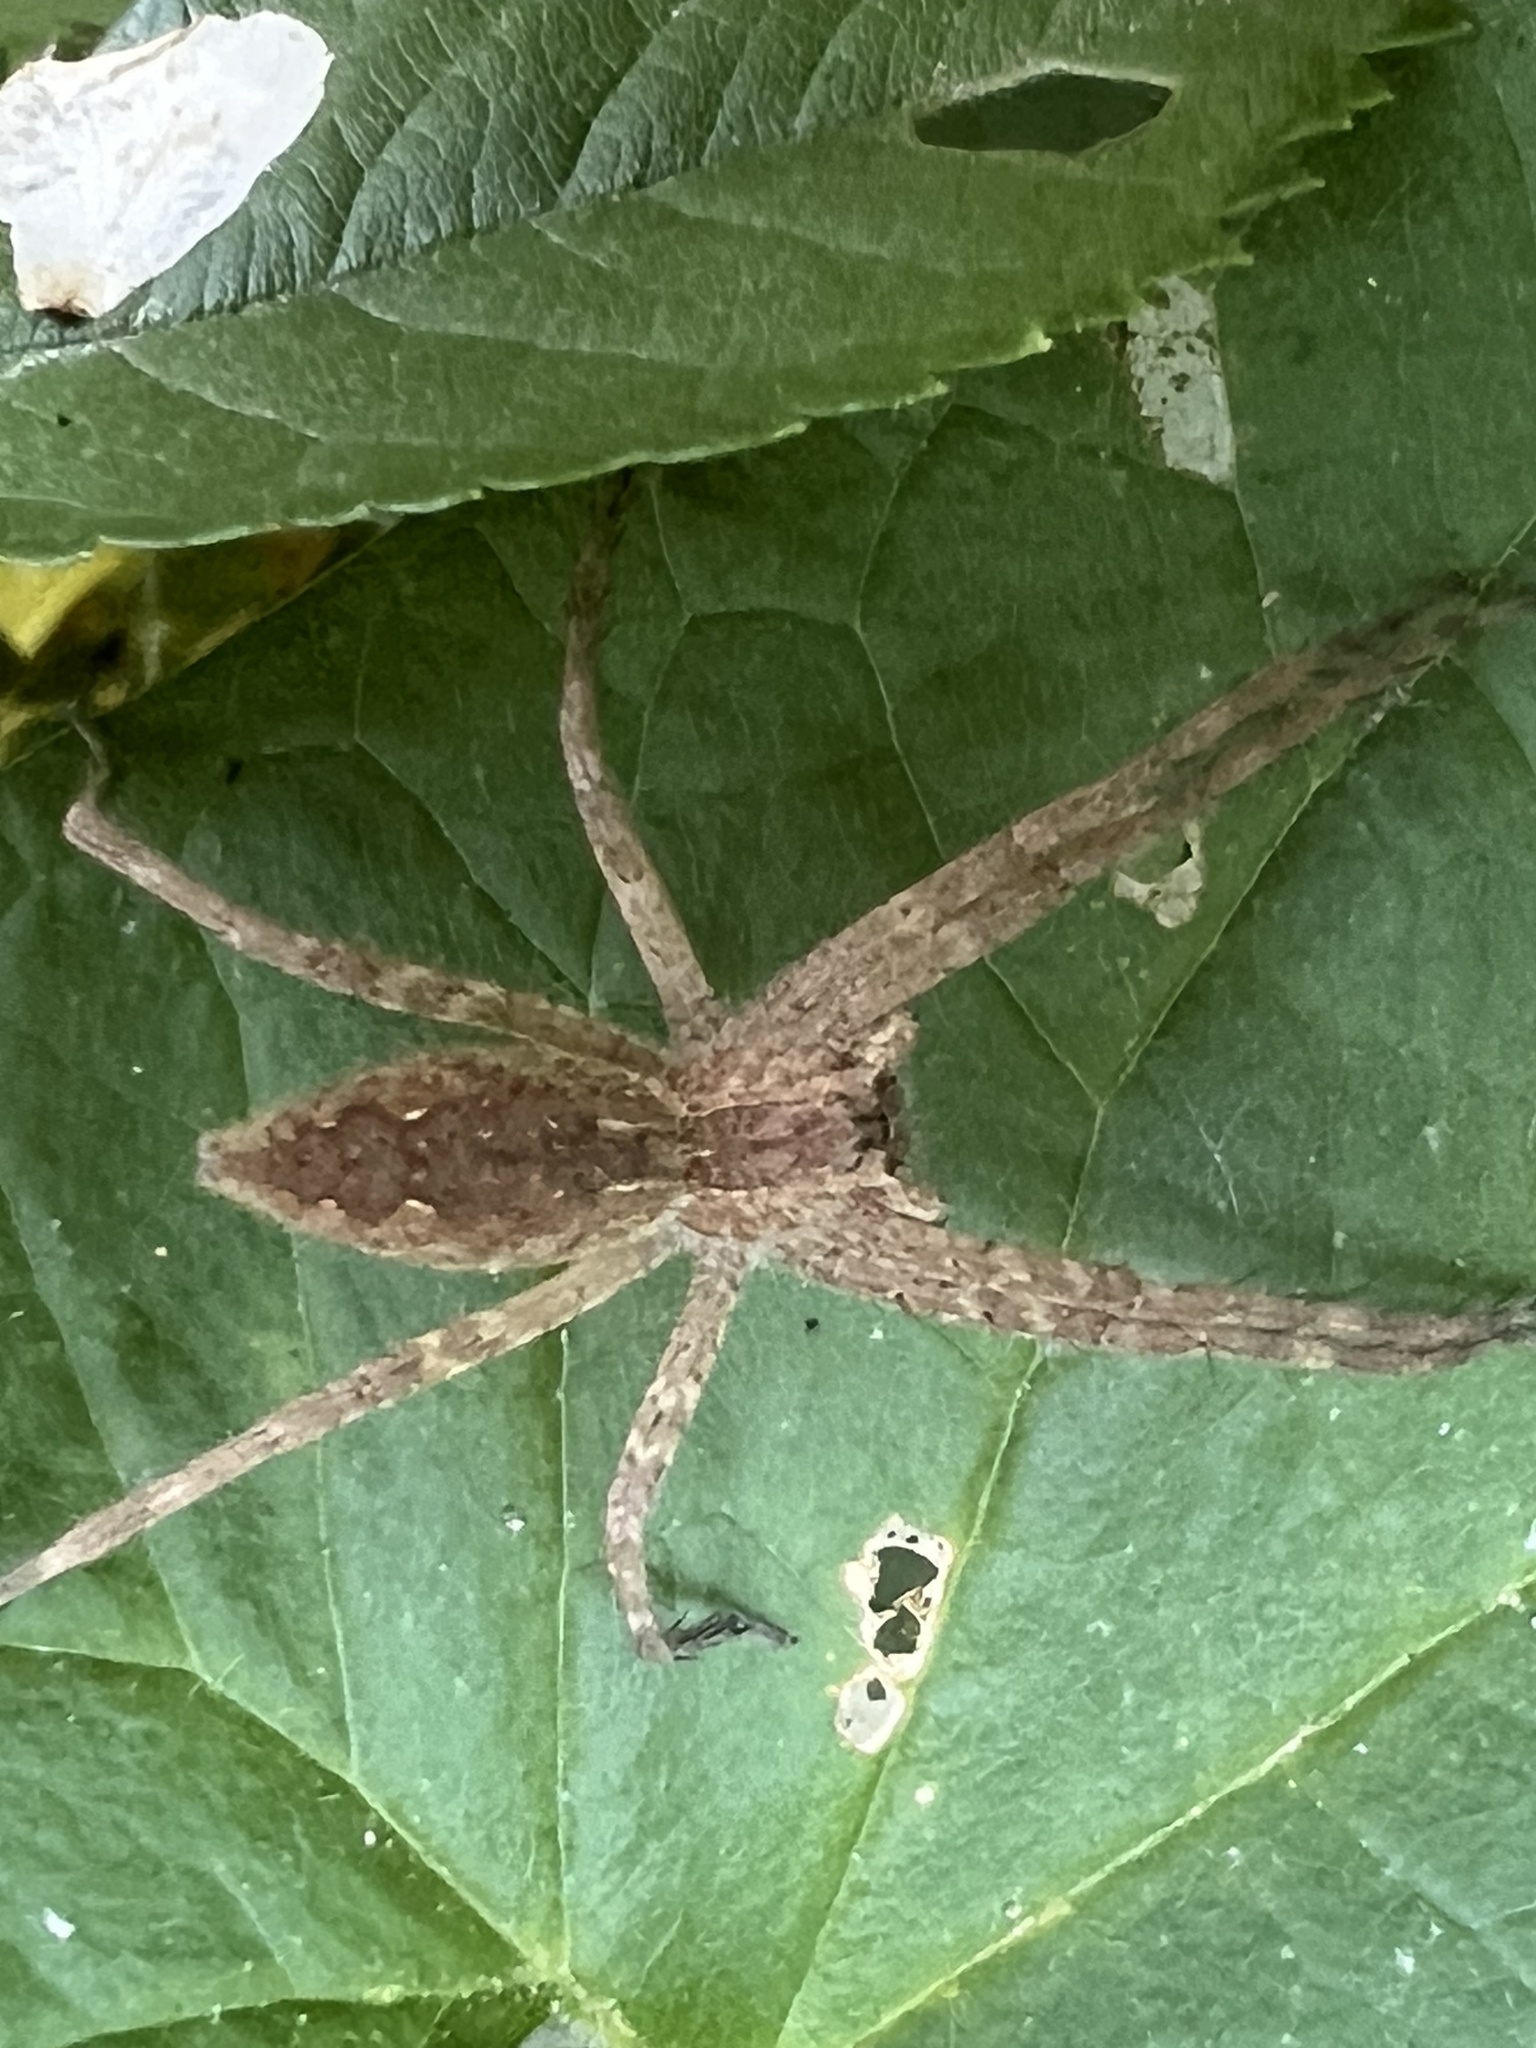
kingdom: Animalia
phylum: Arthropoda
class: Arachnida
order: Araneae
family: Pisauridae
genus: Pisaurina
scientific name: Pisaurina mira
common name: American nursery web spider
